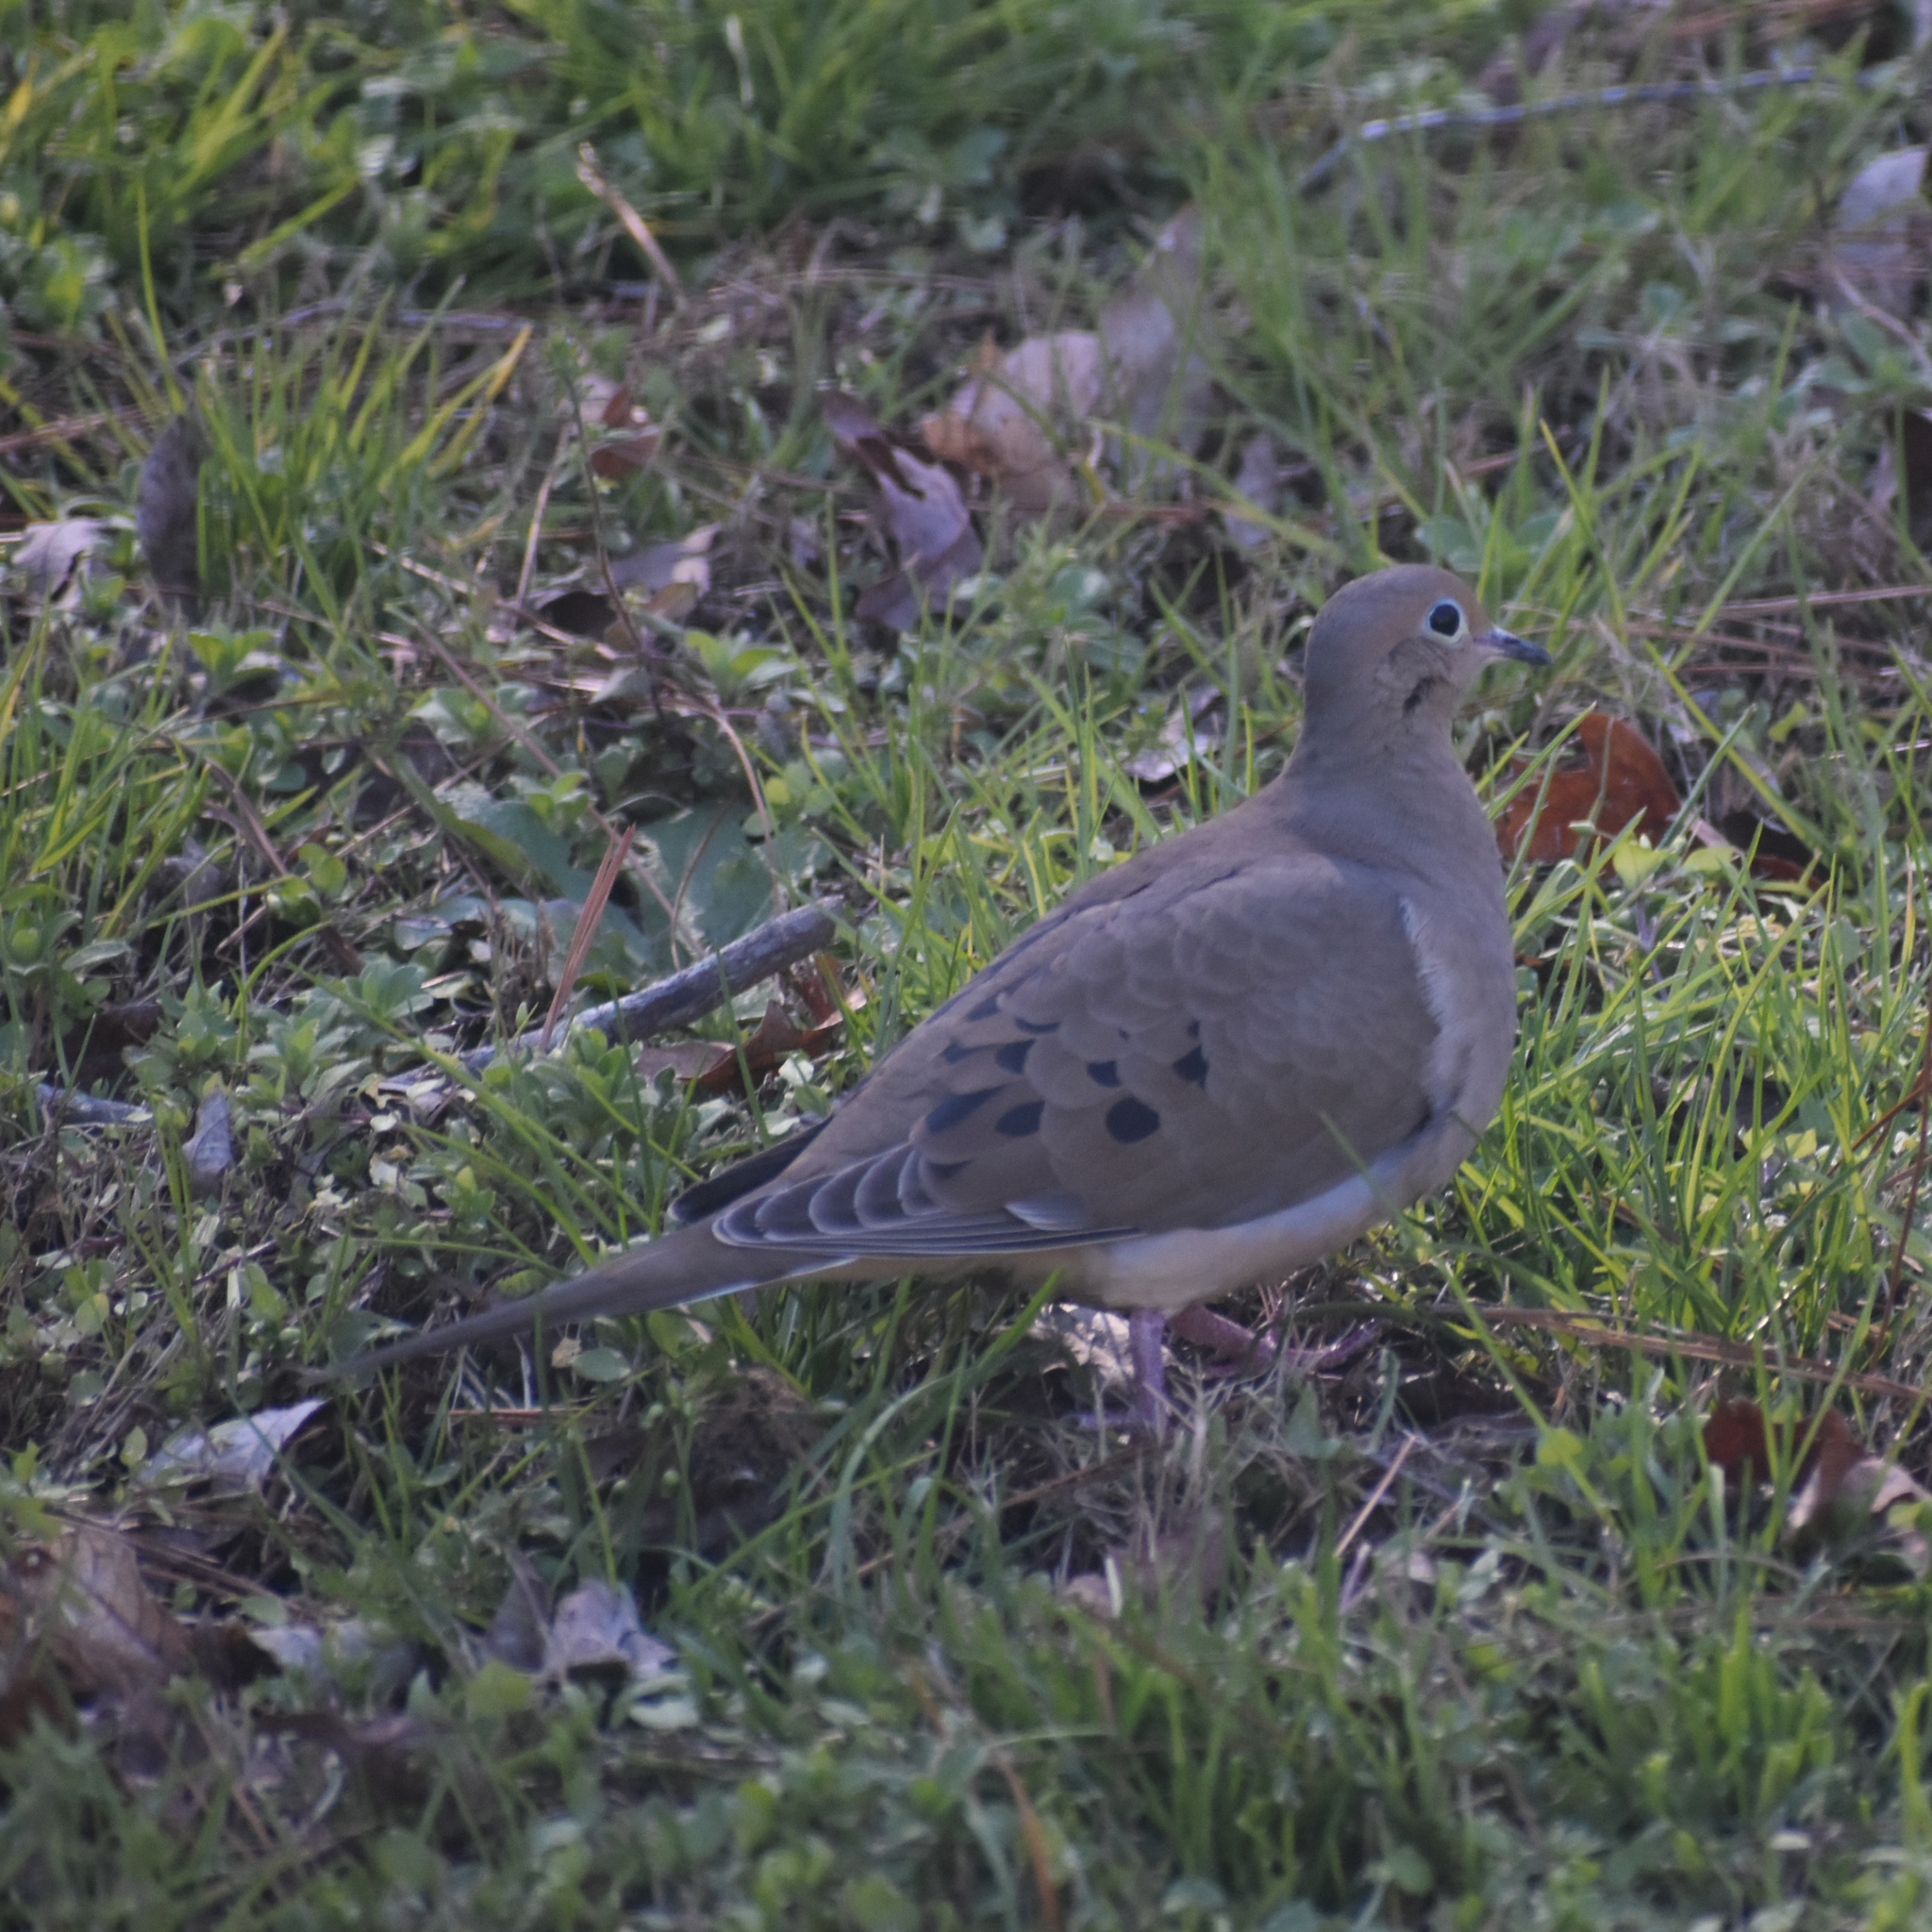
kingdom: Animalia
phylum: Chordata
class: Aves
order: Columbiformes
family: Columbidae
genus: Zenaida
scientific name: Zenaida macroura
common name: Mourning dove
